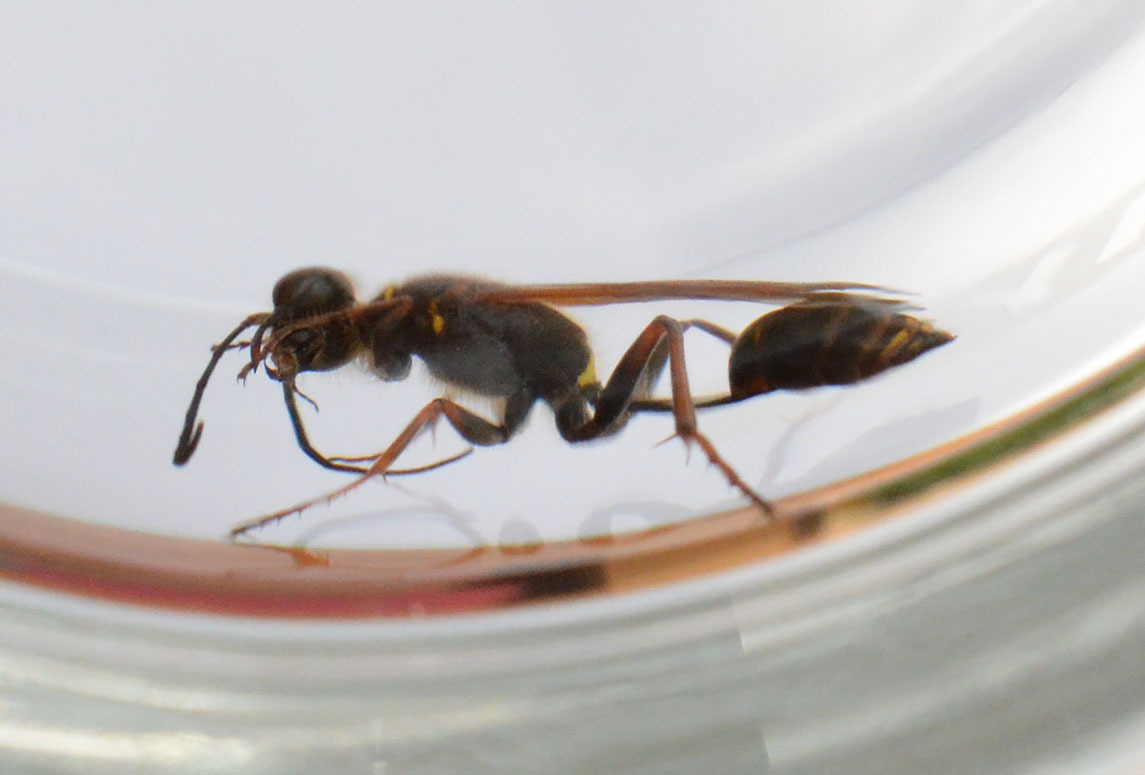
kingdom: Animalia
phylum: Arthropoda
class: Insecta
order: Hymenoptera
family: Sphecidae
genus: Sceliphron
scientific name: Sceliphron curvatum
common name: Pèlopèe
